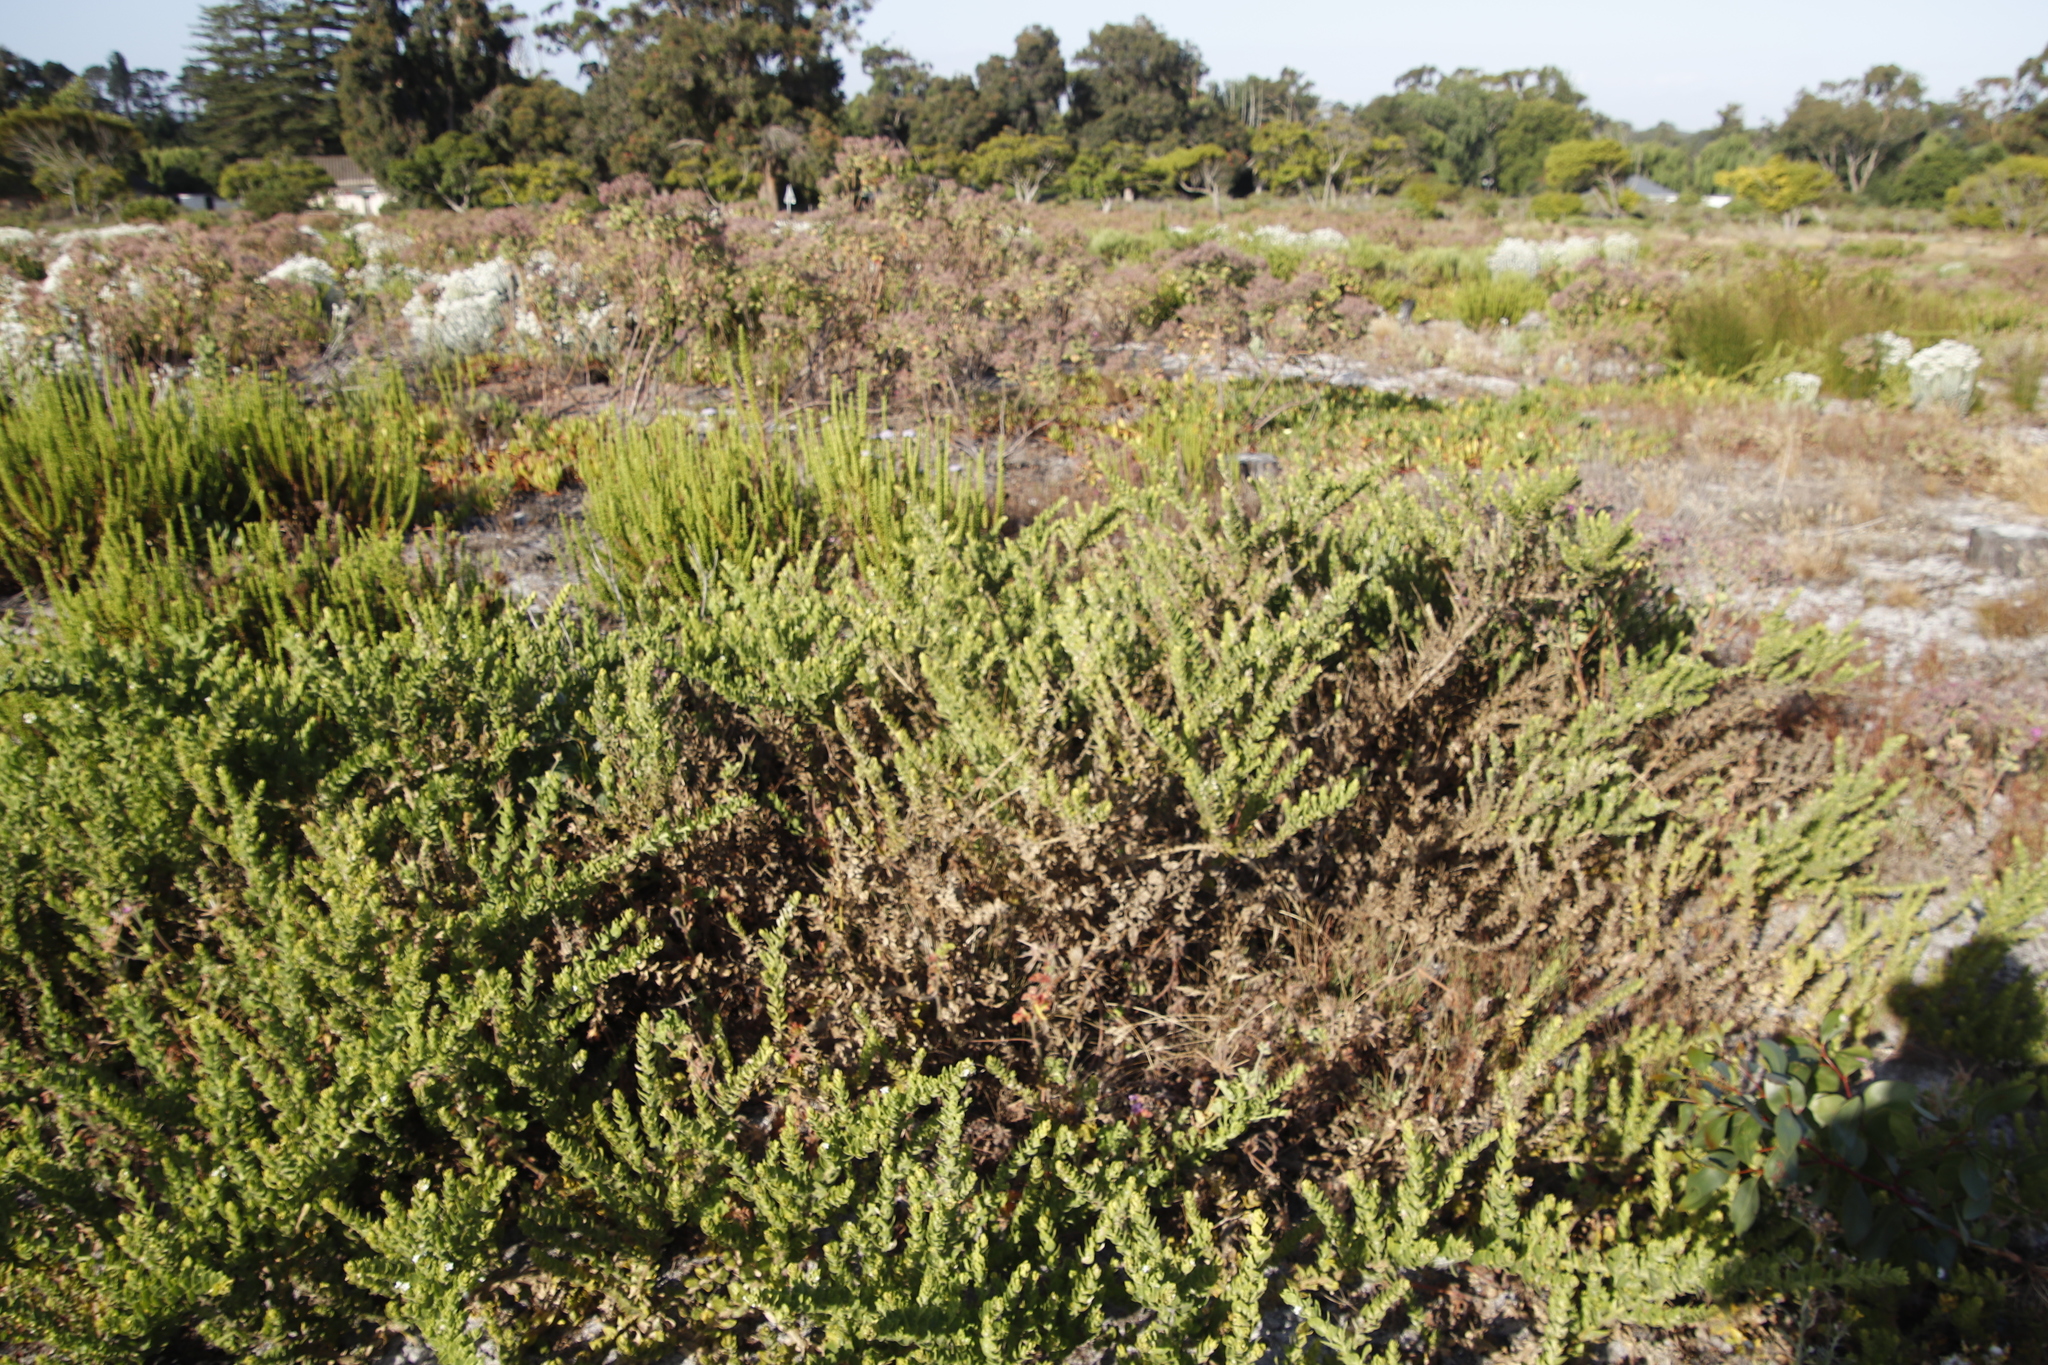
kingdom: Plantae
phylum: Tracheophyta
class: Magnoliopsida
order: Lamiales
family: Scrophulariaceae
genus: Oftia
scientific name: Oftia africana
